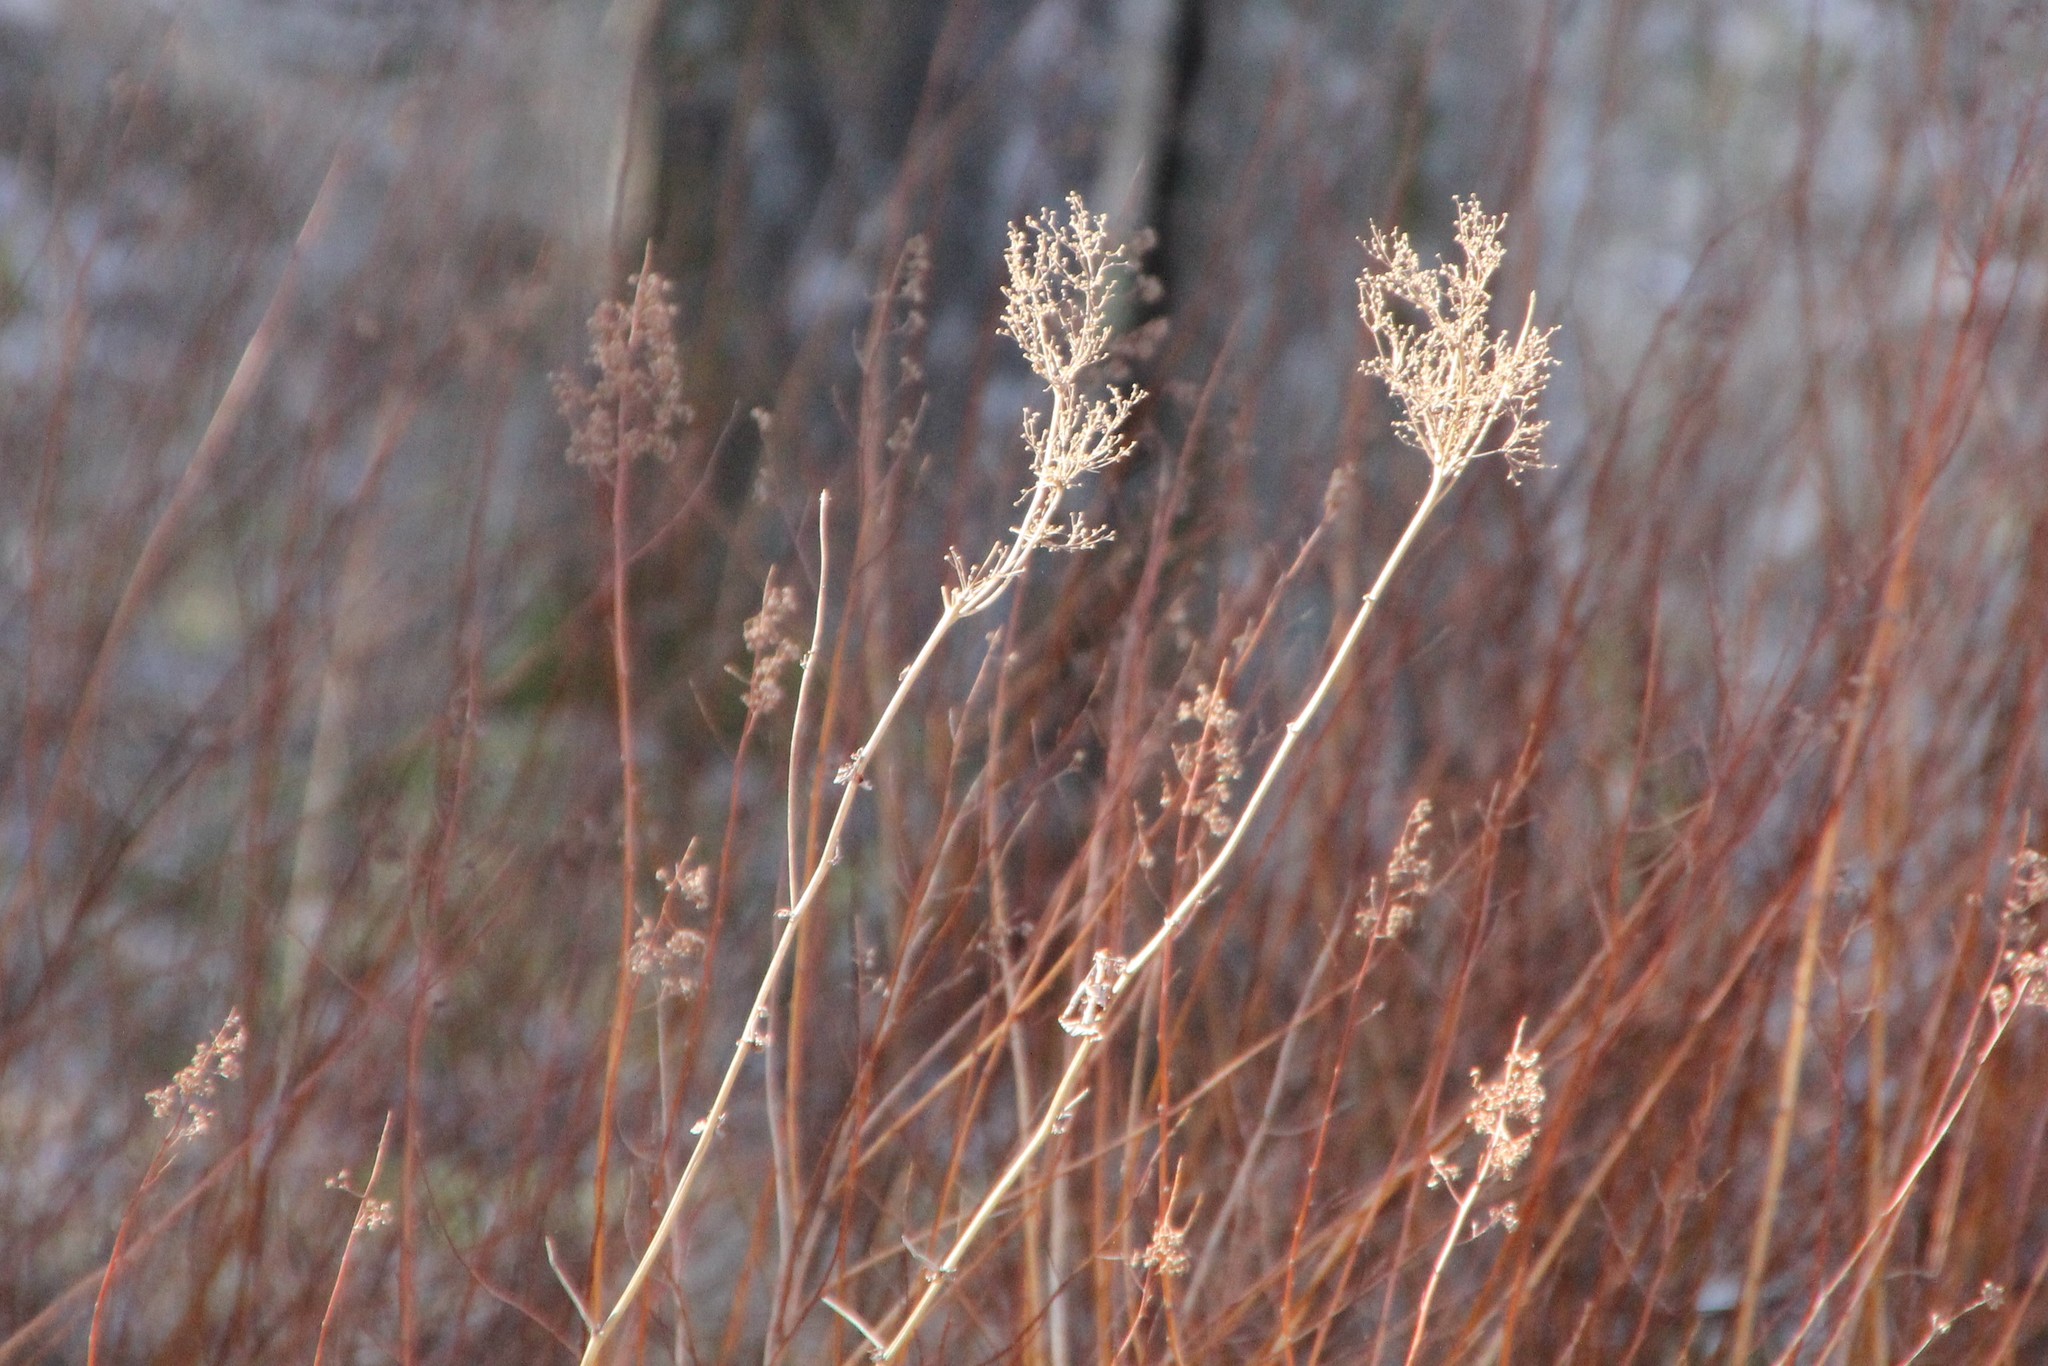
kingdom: Plantae
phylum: Tracheophyta
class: Magnoliopsida
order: Rosales
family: Rosaceae
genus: Filipendula
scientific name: Filipendula ulmaria
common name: Meadowsweet
